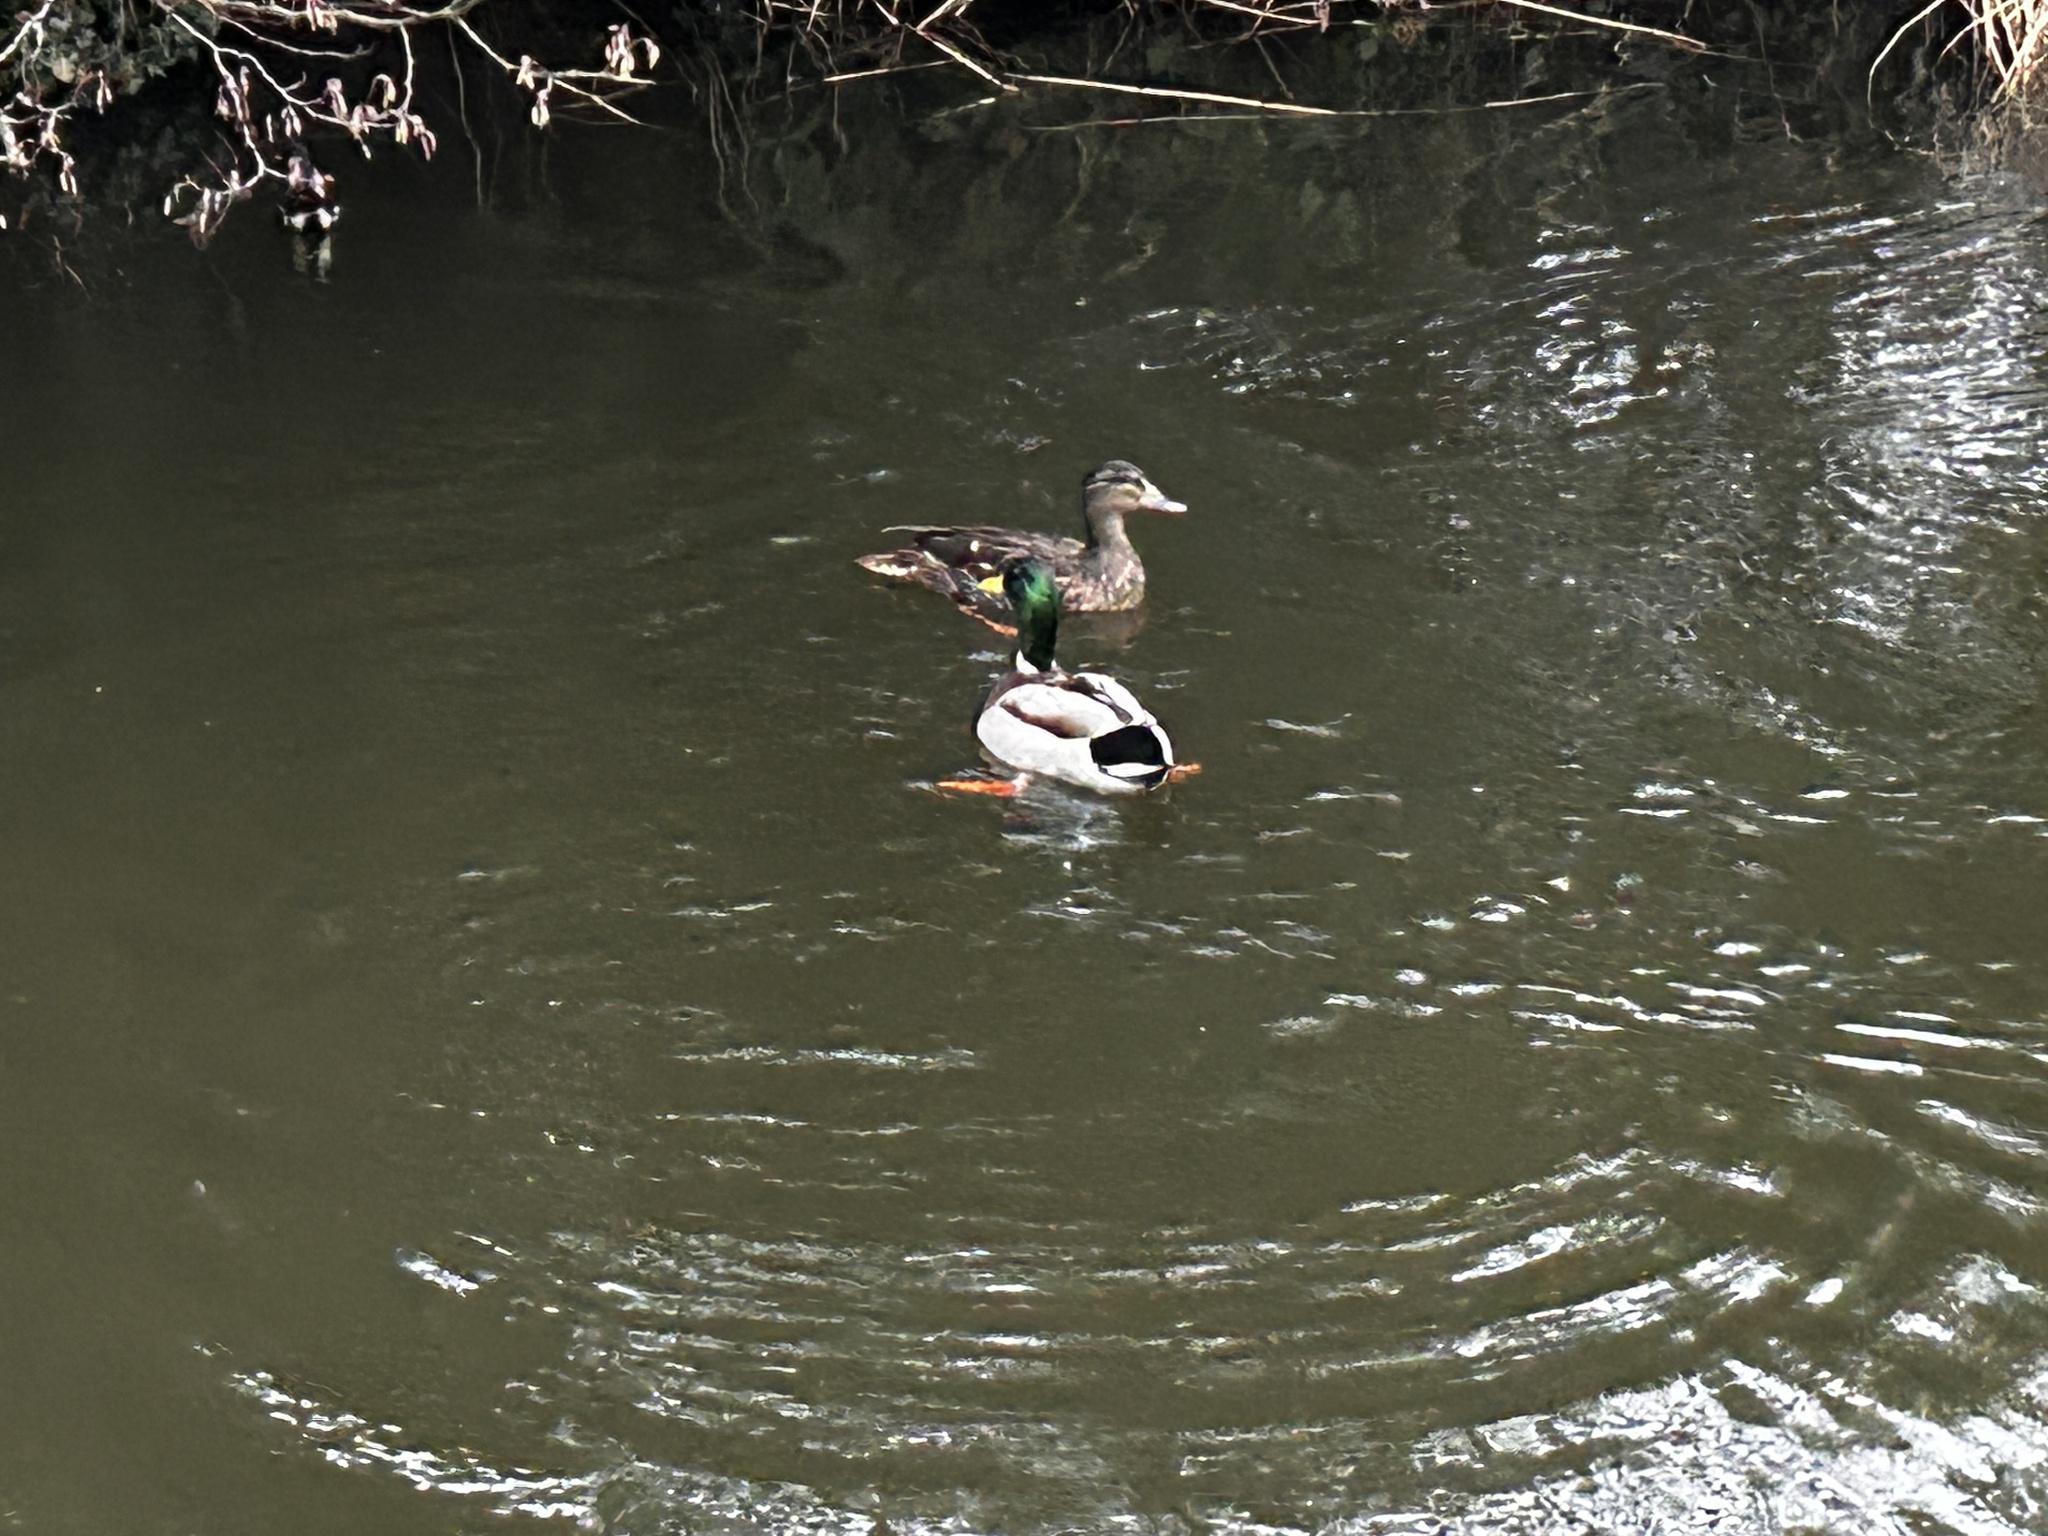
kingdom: Animalia
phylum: Chordata
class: Aves
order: Anseriformes
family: Anatidae
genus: Anas
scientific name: Anas platyrhynchos
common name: Mallard
